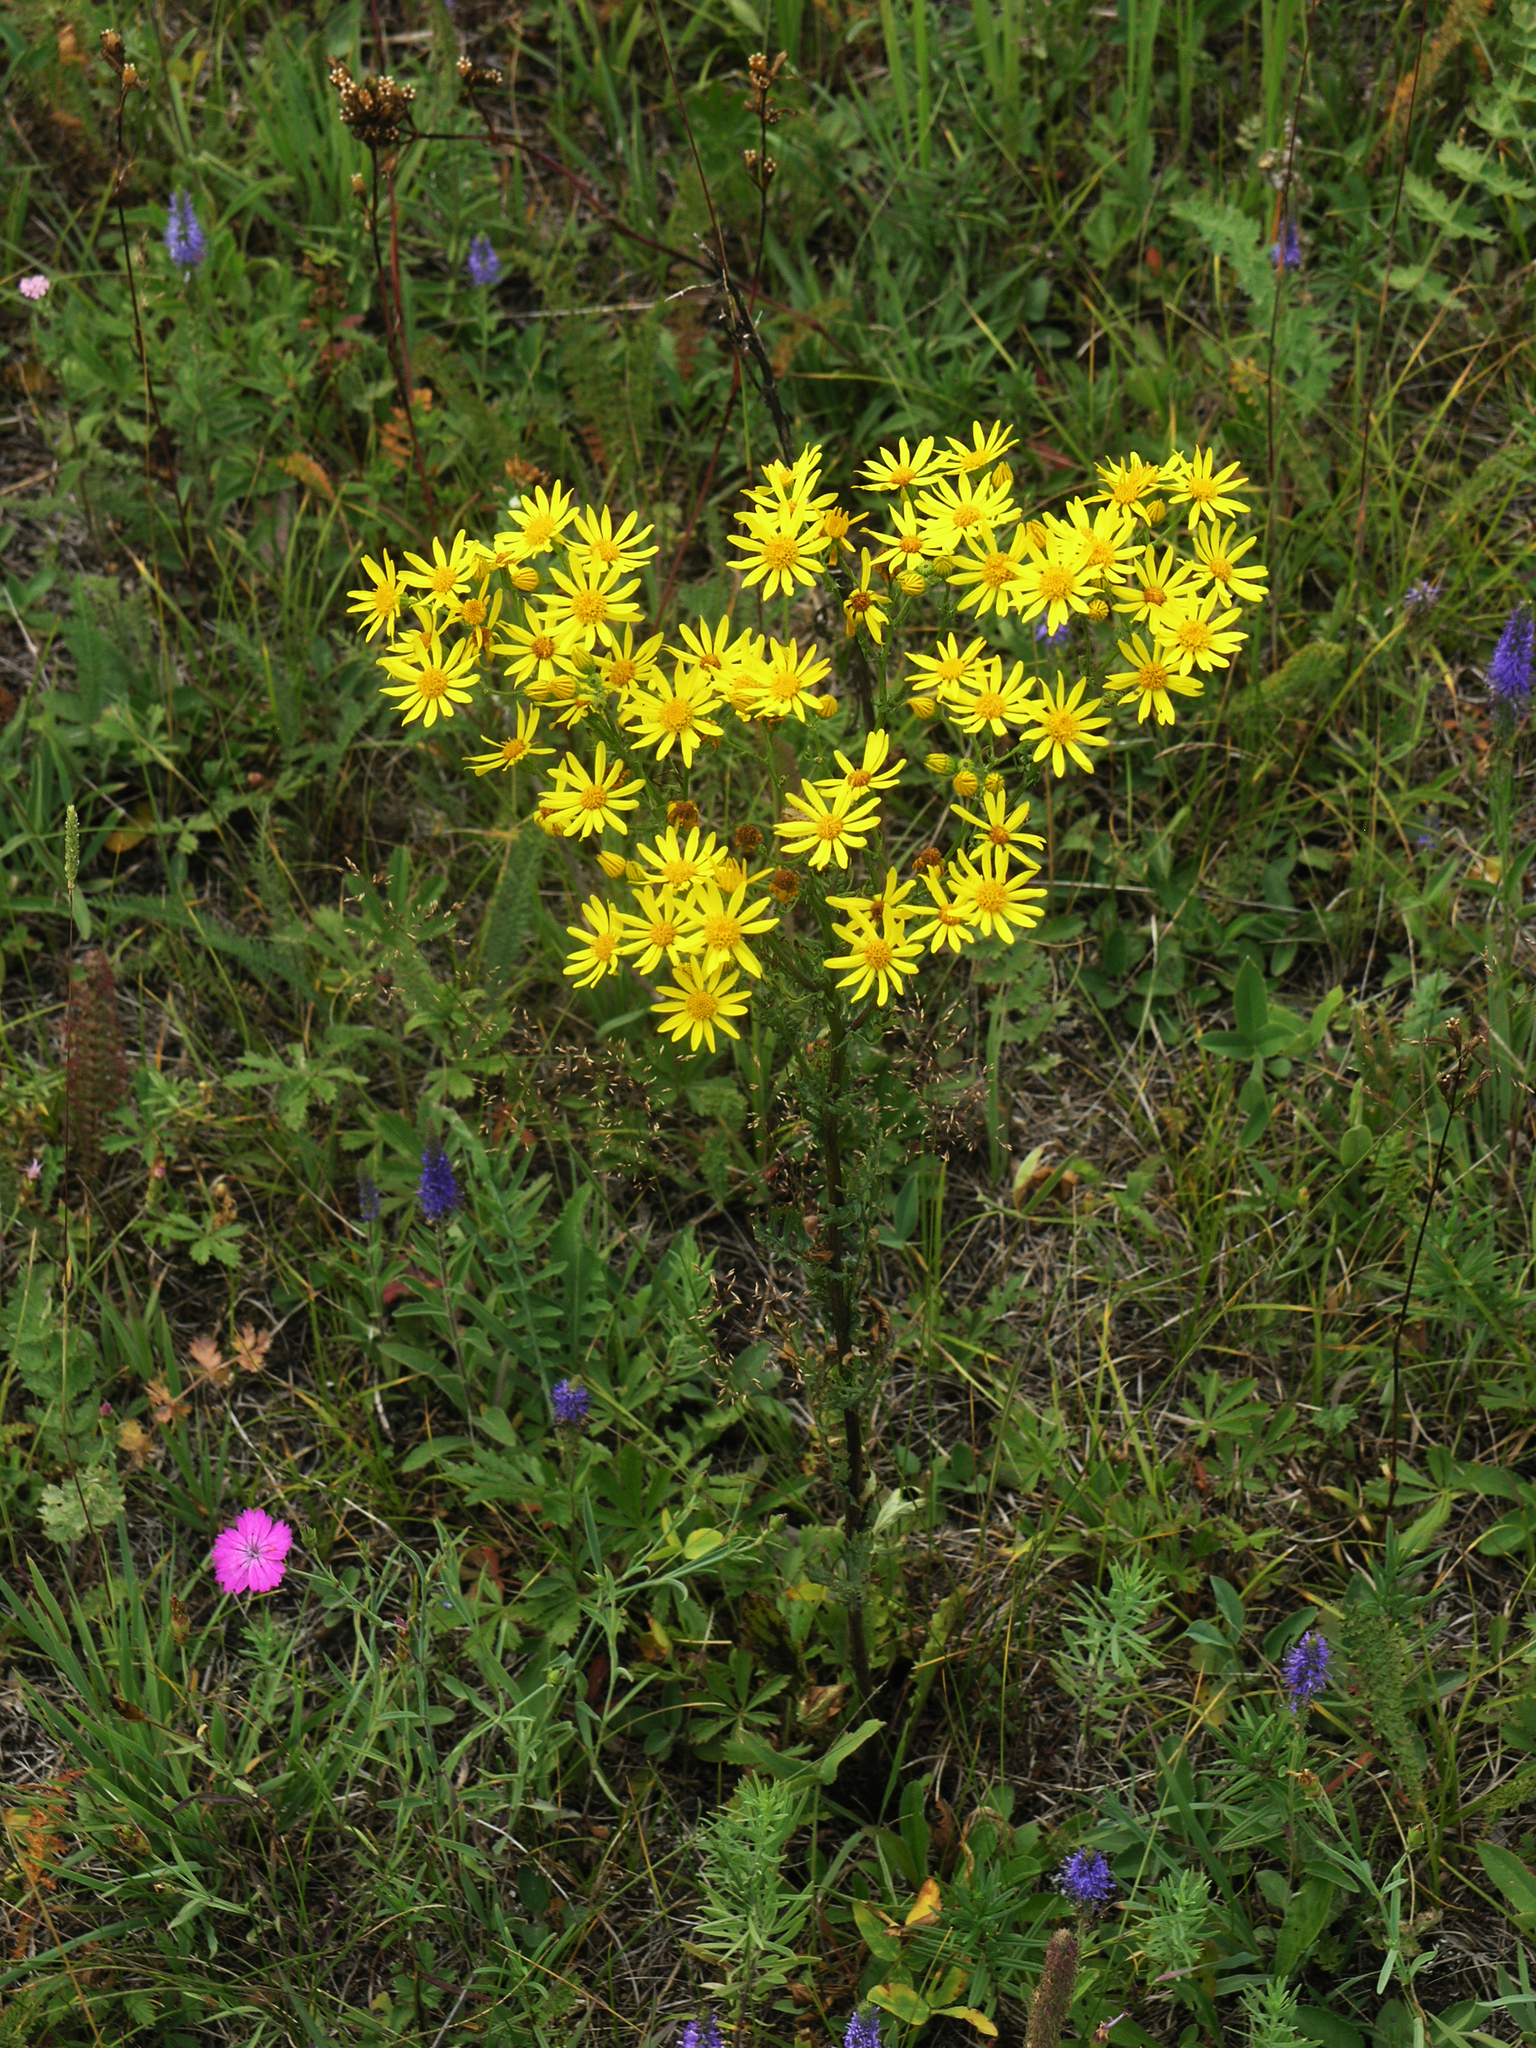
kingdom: Plantae
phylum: Tracheophyta
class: Magnoliopsida
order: Asterales
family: Asteraceae
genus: Jacobaea
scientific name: Jacobaea vulgaris
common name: Stinking willie
